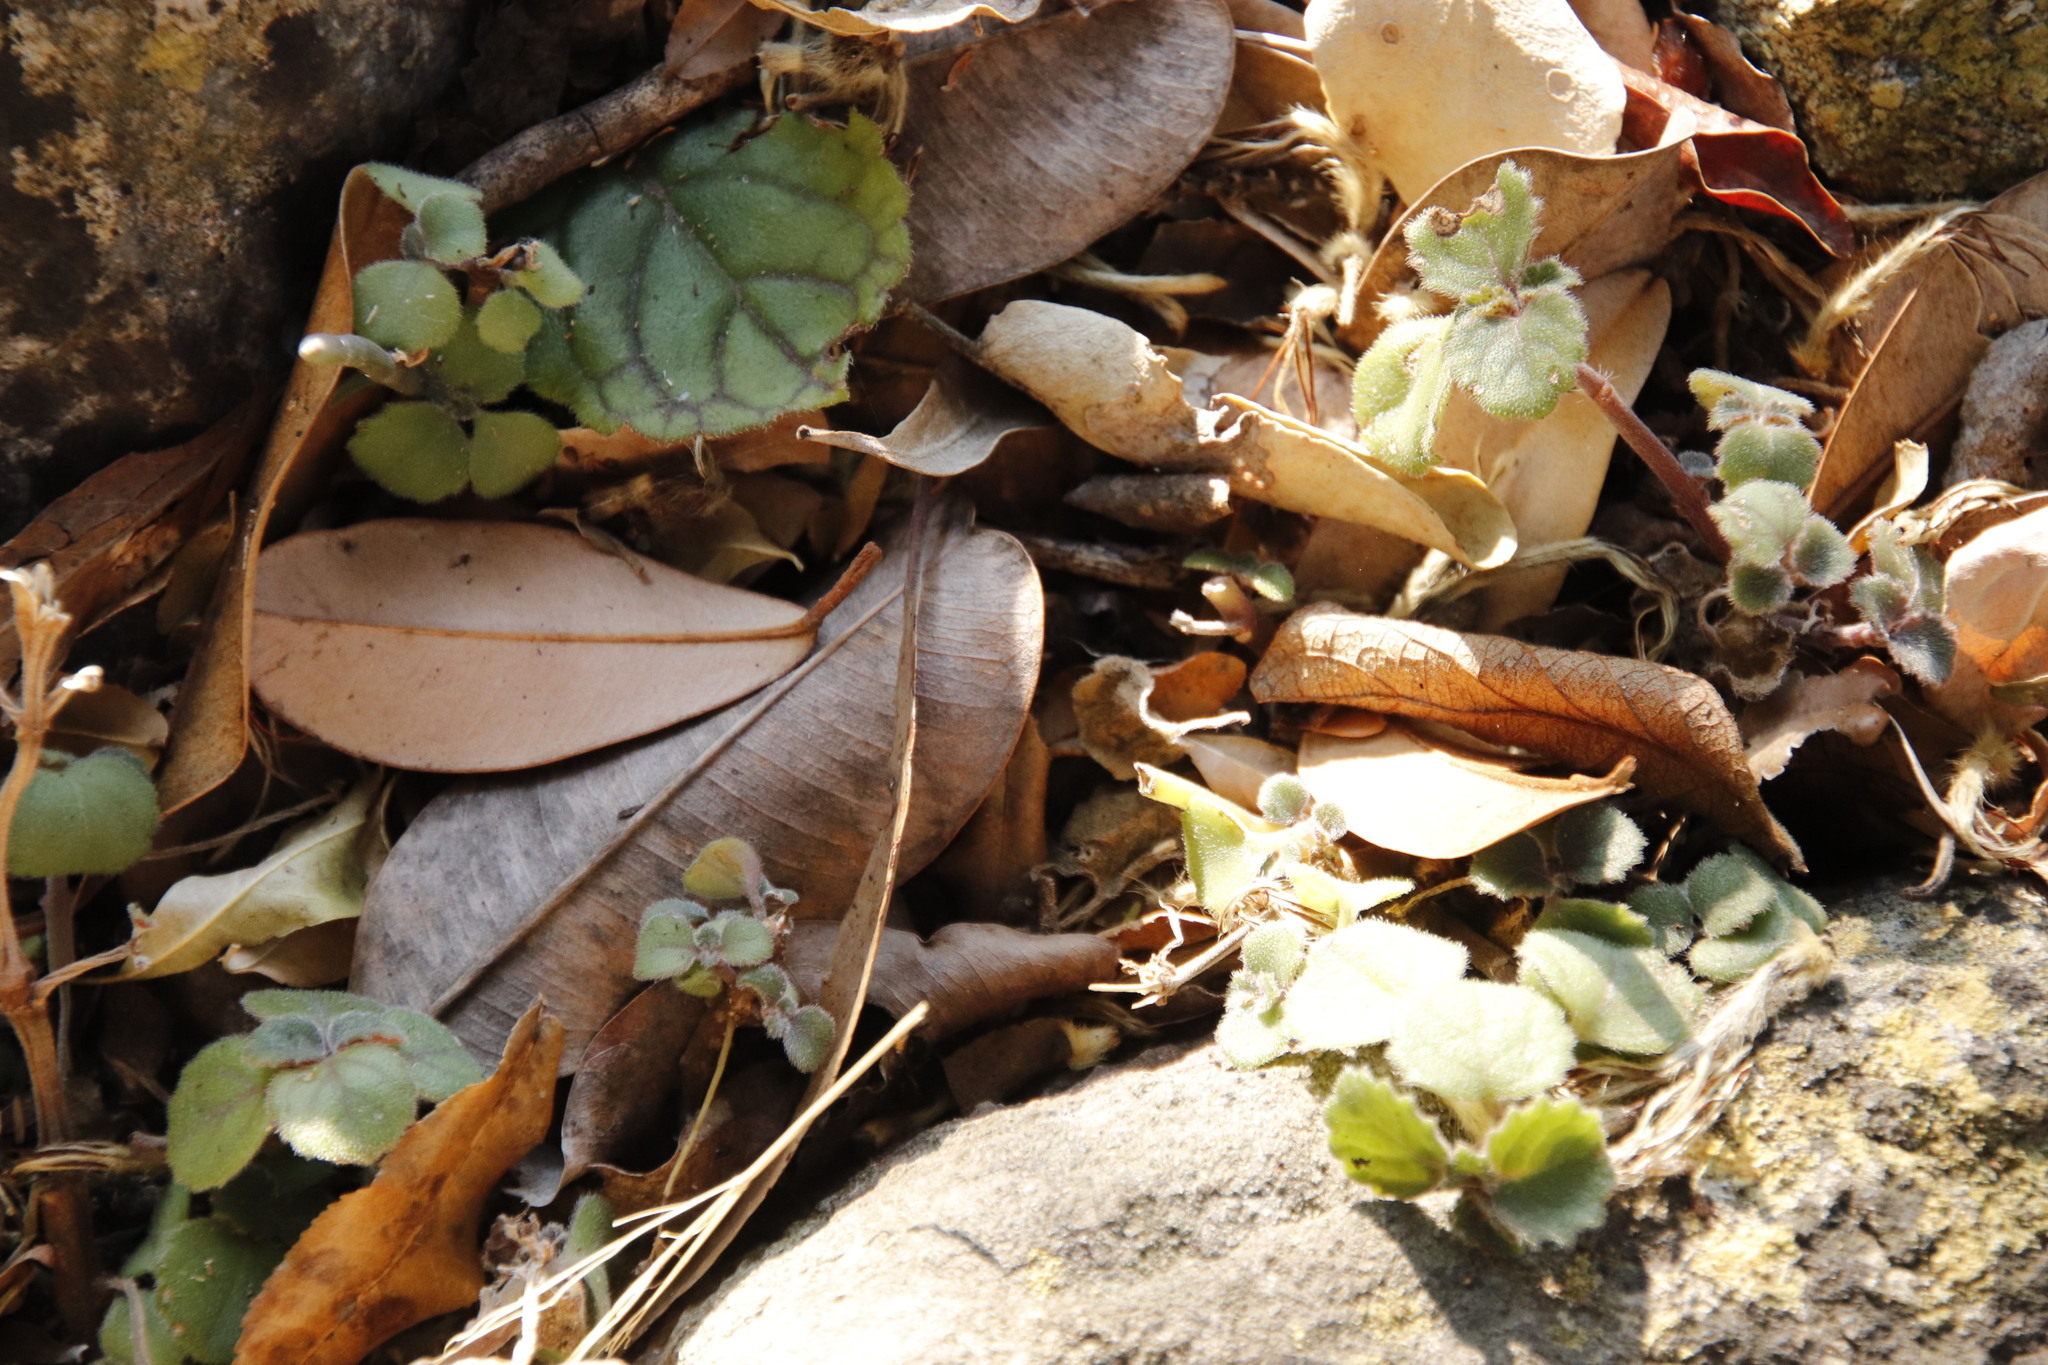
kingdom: Plantae
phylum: Tracheophyta
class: Magnoliopsida
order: Lamiales
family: Lamiaceae
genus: Plectranthus
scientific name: Plectranthus verticillatus
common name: Whorled plectranthus
